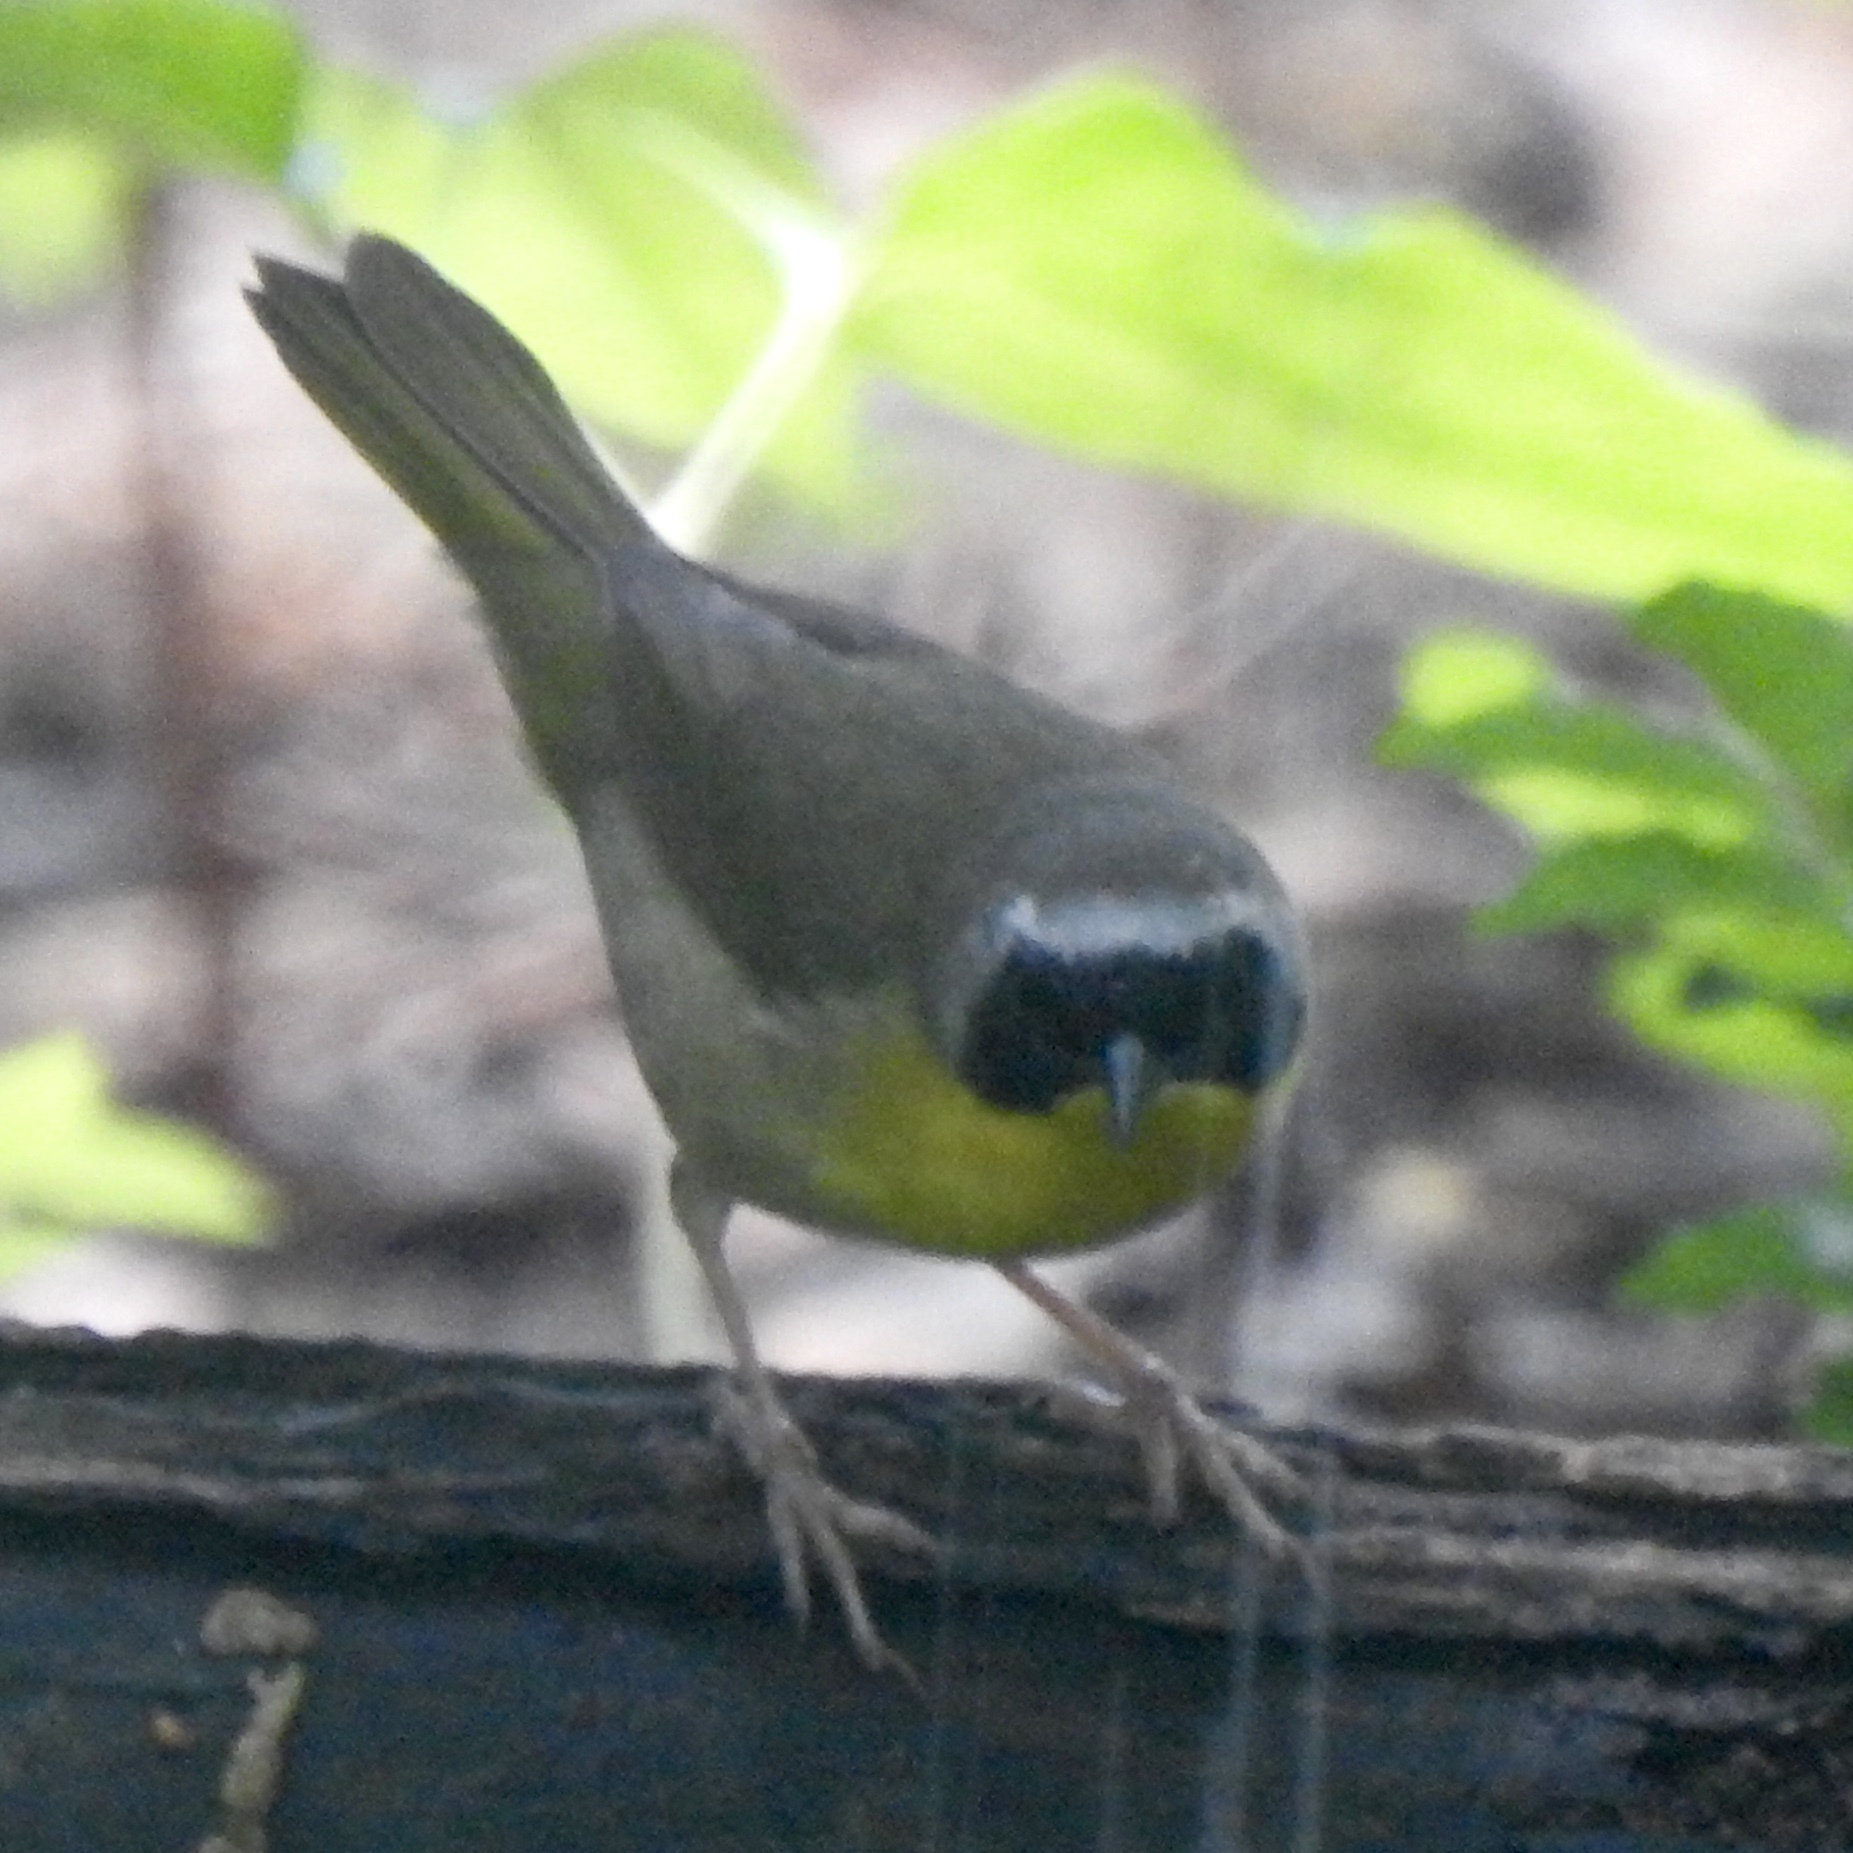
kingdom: Animalia
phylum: Chordata
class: Aves
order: Passeriformes
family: Parulidae
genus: Geothlypis
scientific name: Geothlypis trichas
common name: Common yellowthroat
